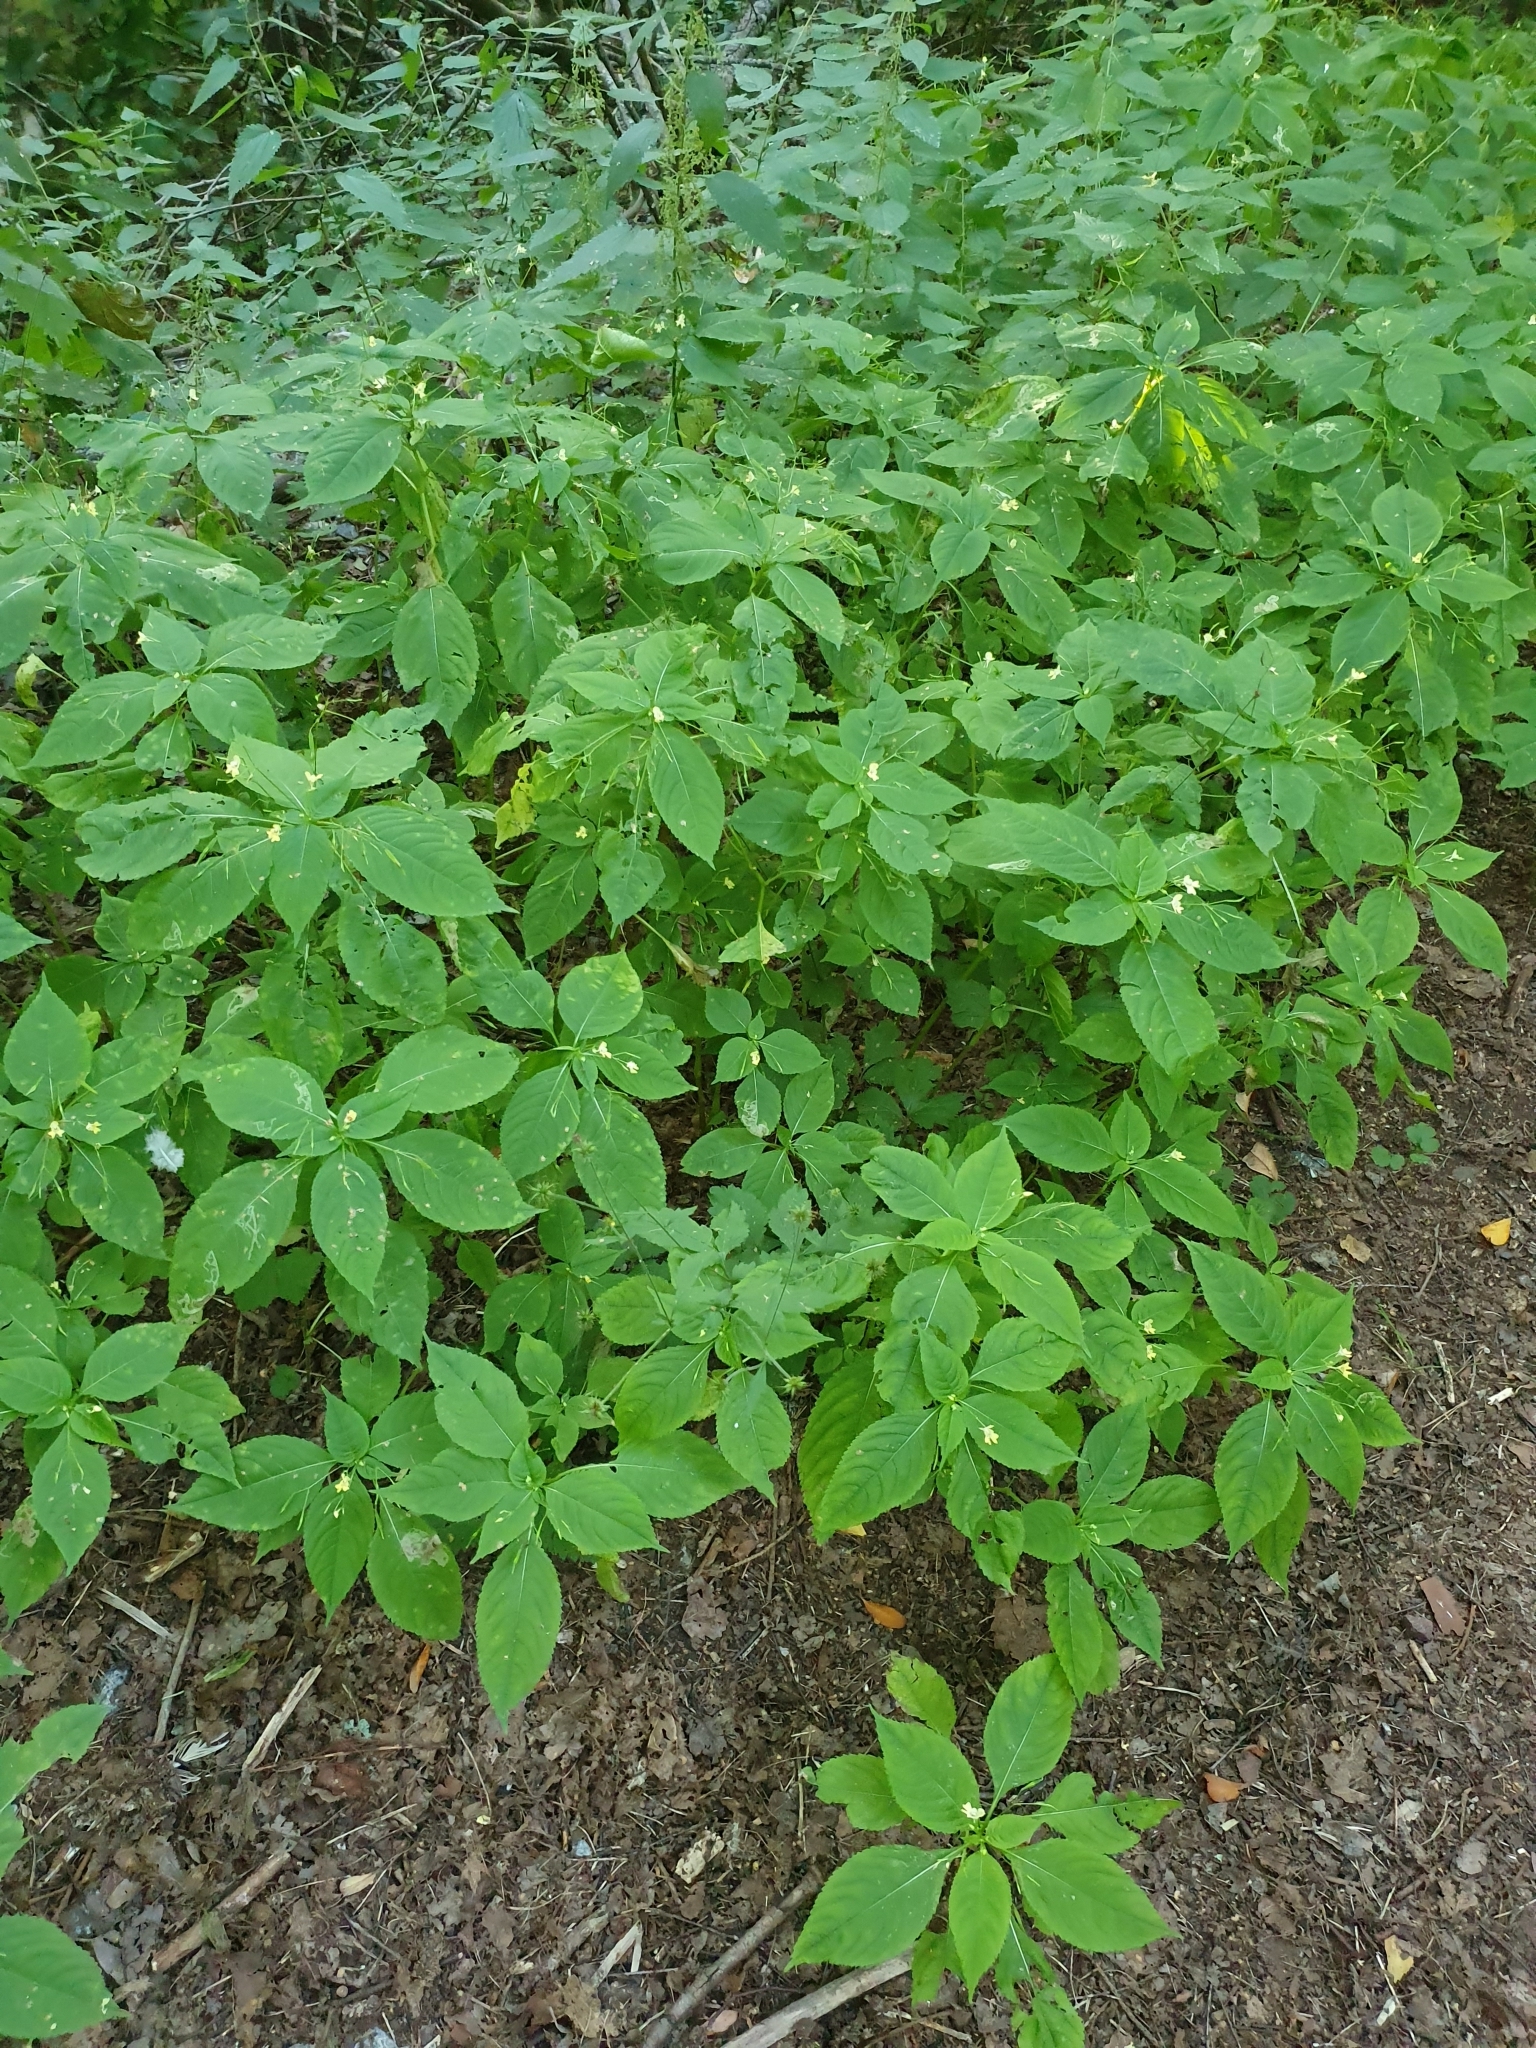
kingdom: Plantae
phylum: Tracheophyta
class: Magnoliopsida
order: Ericales
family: Balsaminaceae
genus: Impatiens
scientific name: Impatiens parviflora
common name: Small balsam
